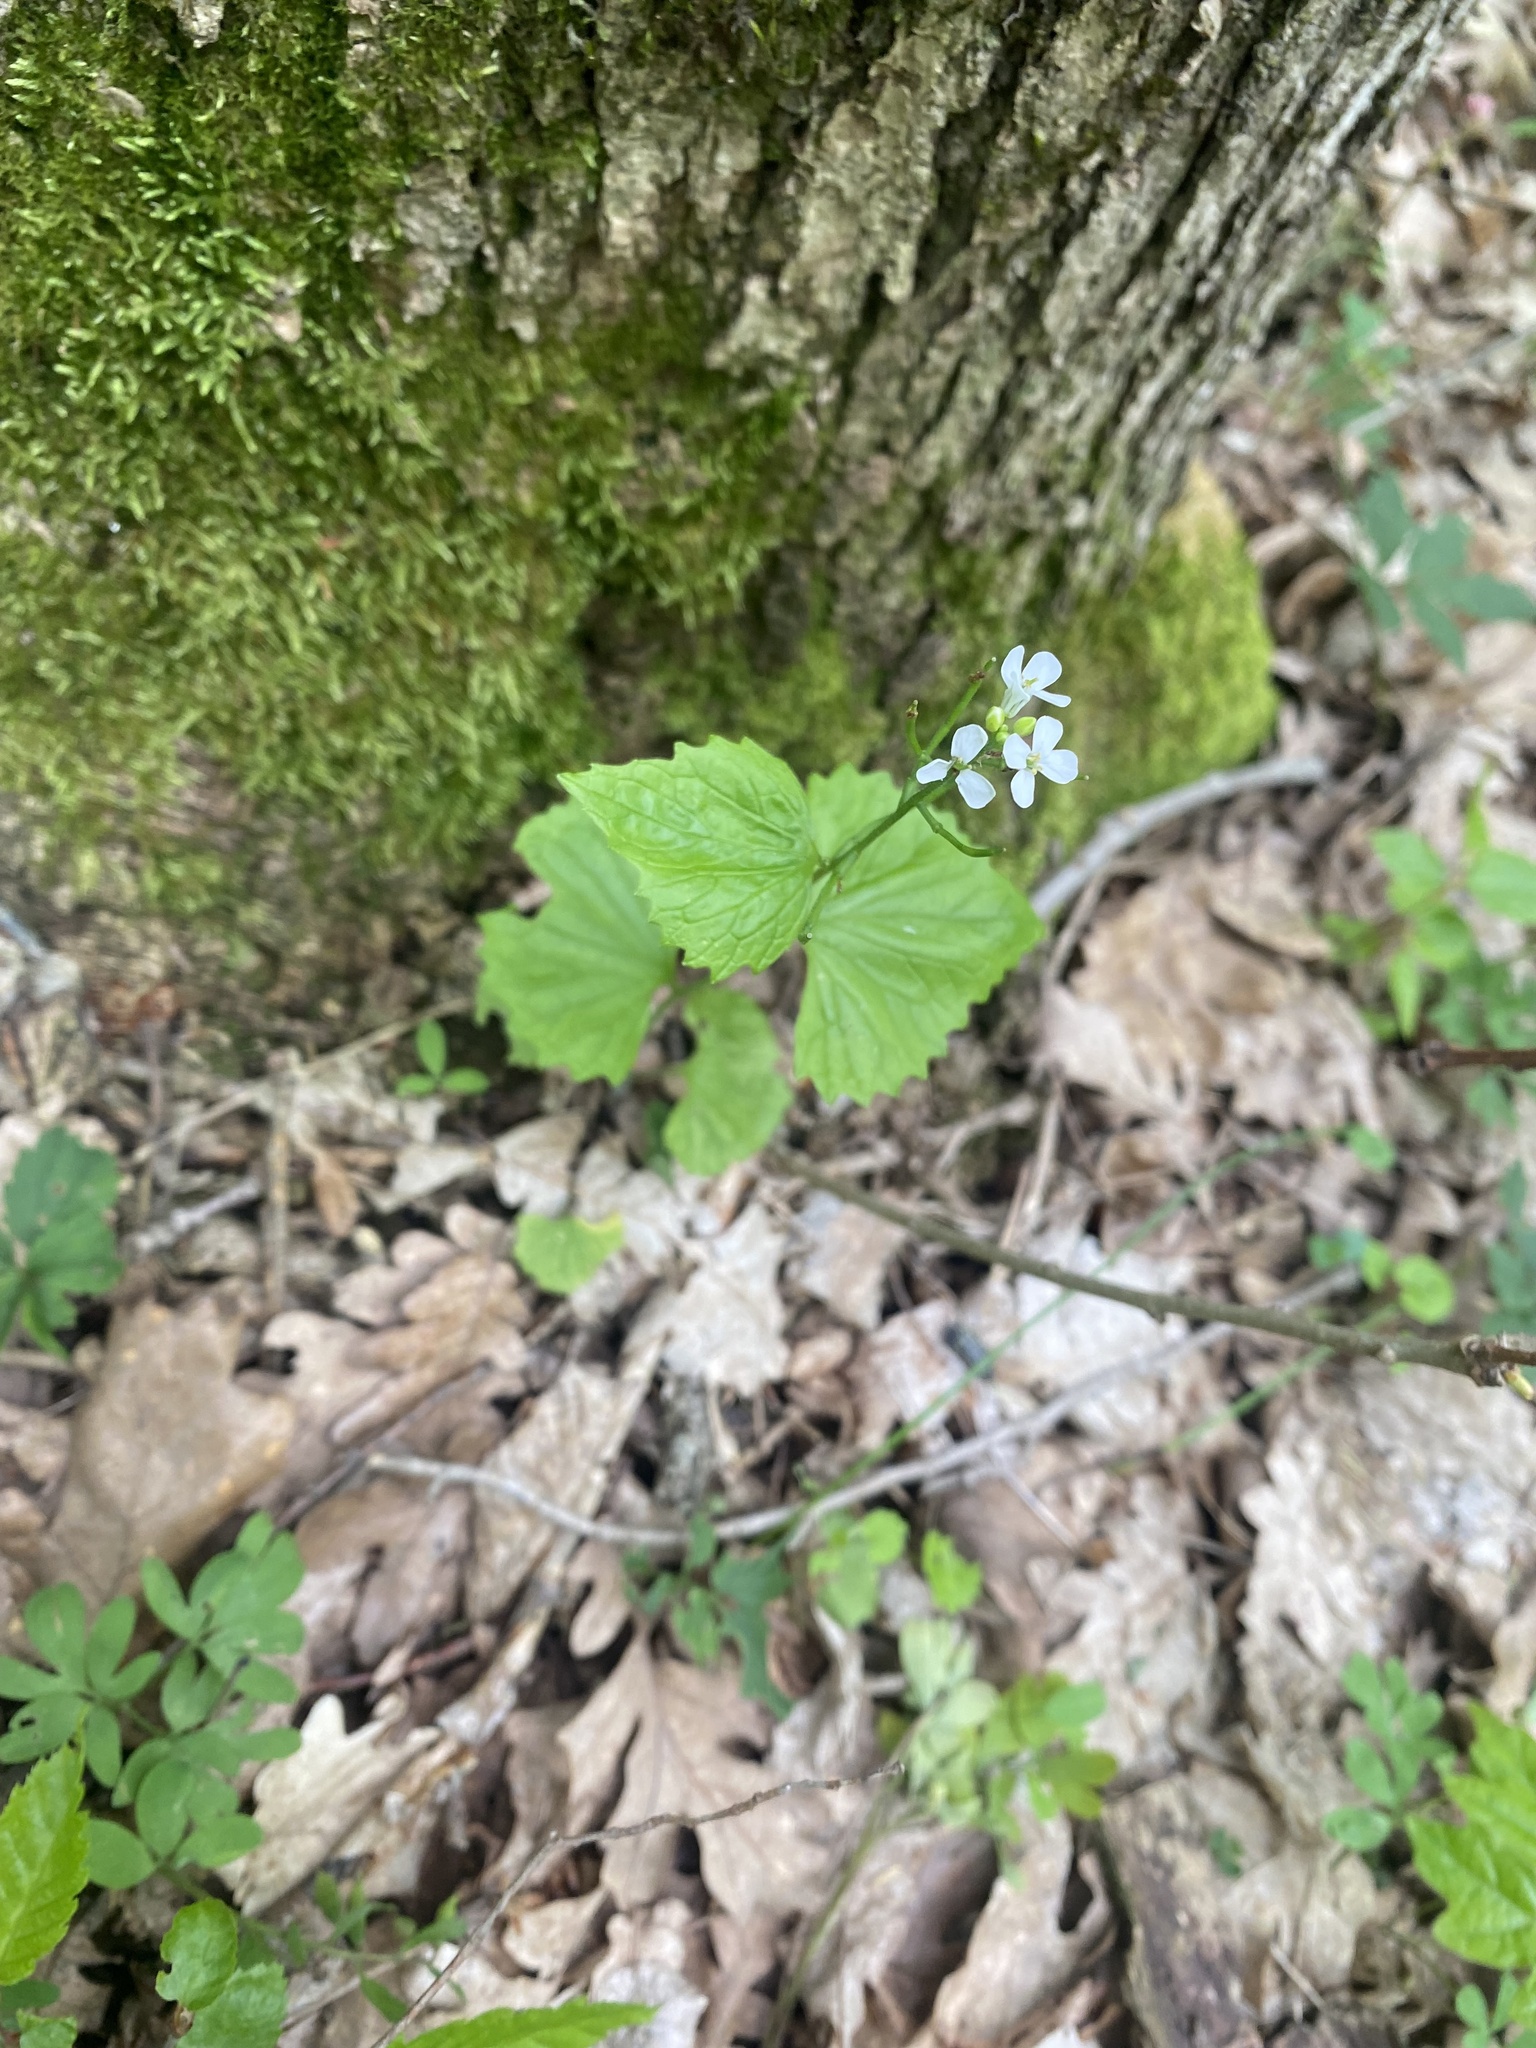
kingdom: Plantae
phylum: Tracheophyta
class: Magnoliopsida
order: Brassicales
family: Brassicaceae
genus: Alliaria
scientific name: Alliaria petiolata
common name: Garlic mustard
